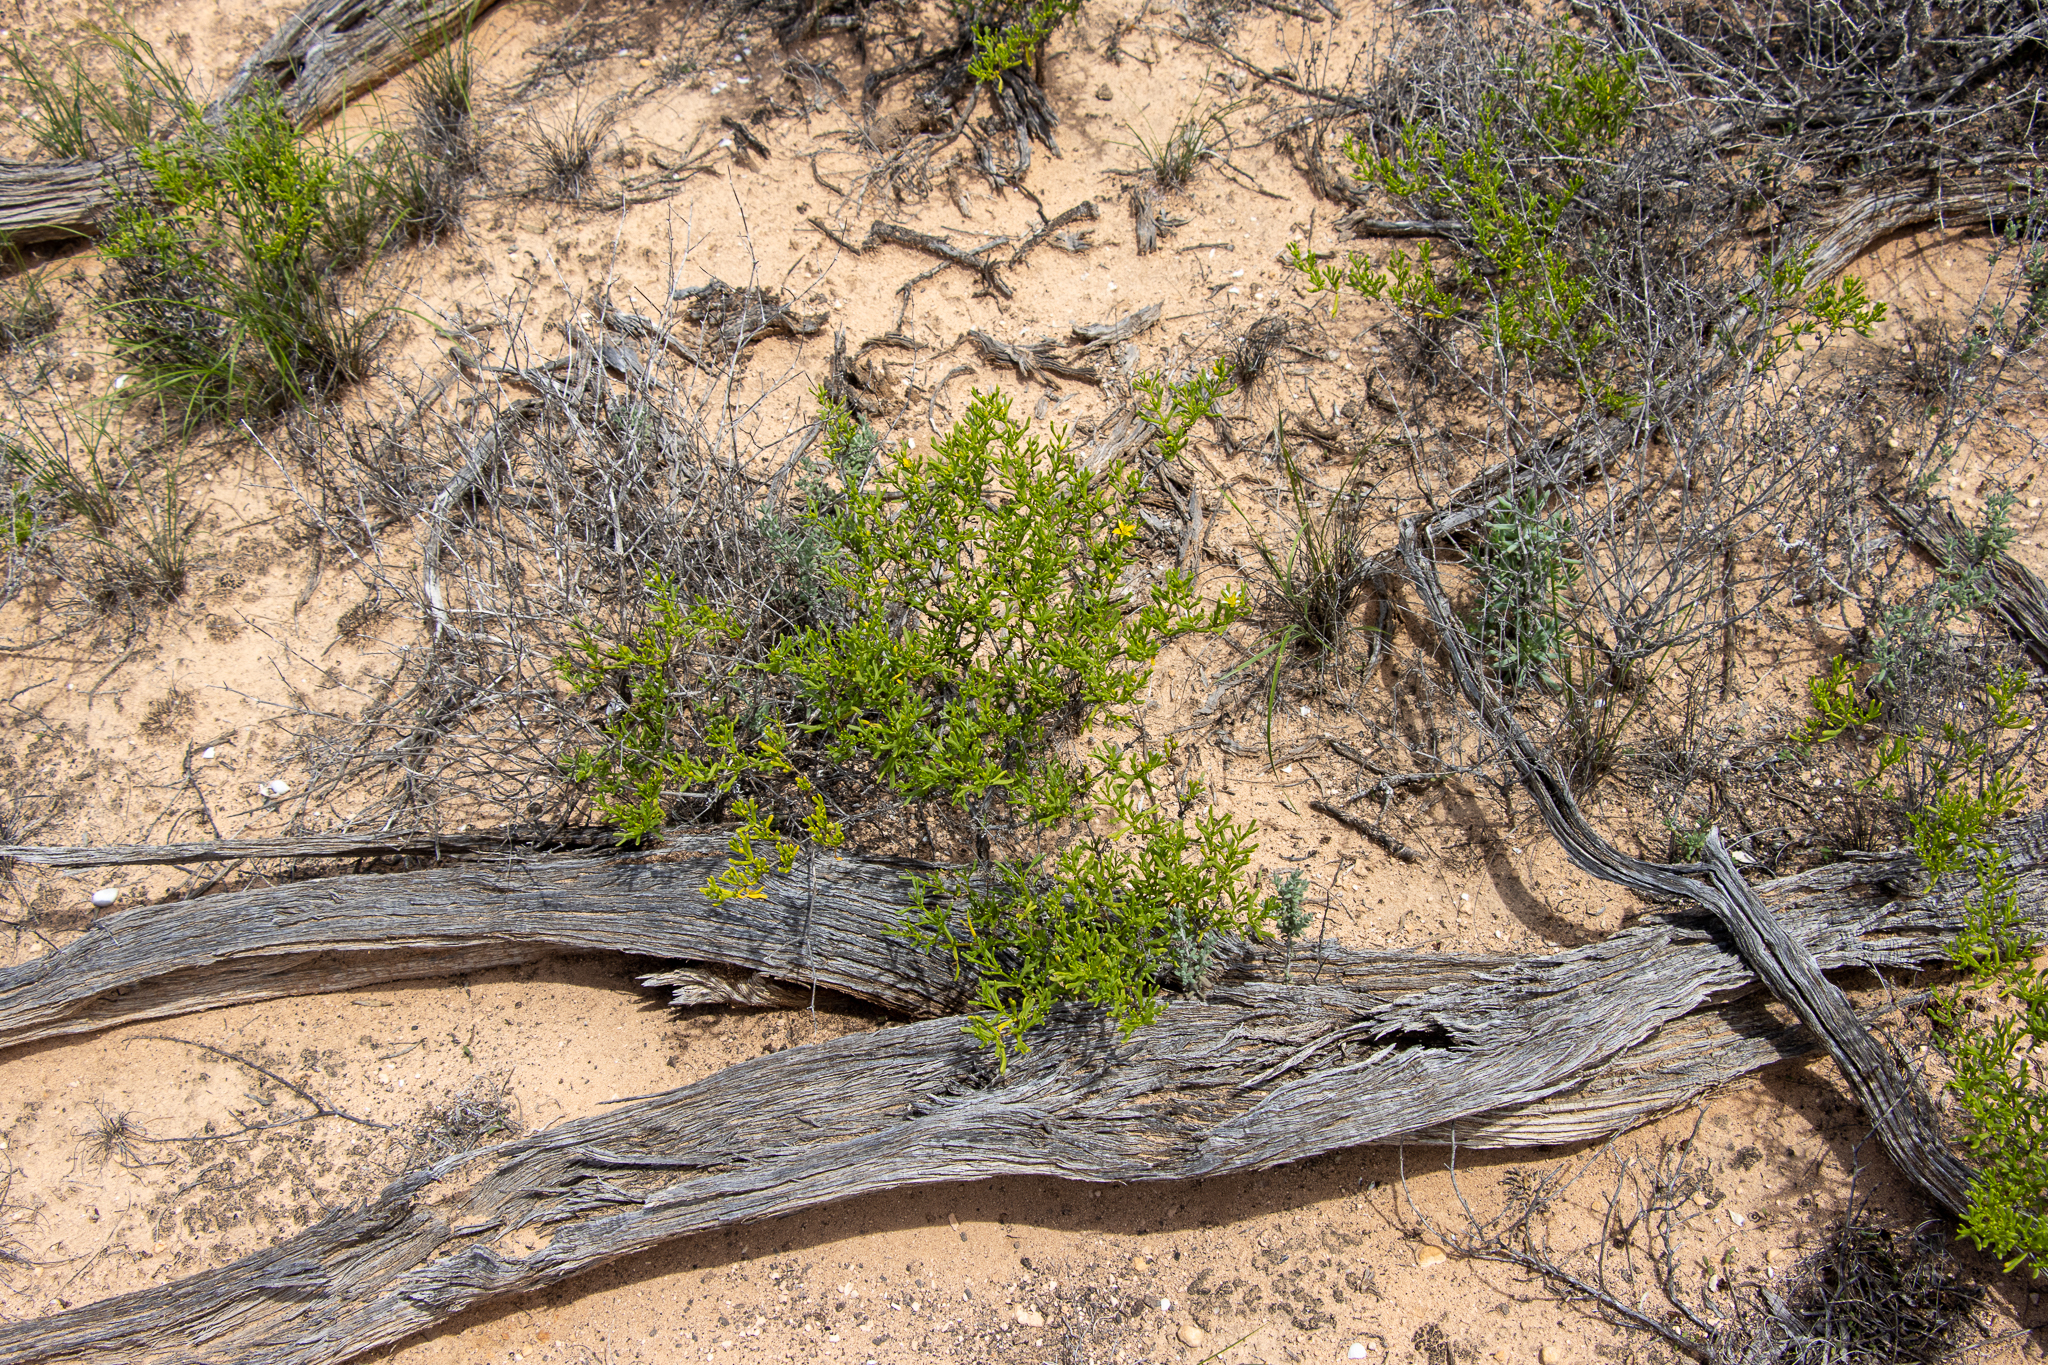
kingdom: Plantae
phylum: Tracheophyta
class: Magnoliopsida
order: Zygophyllales
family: Zygophyllaceae
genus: Roepera
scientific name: Roepera aurantiaca
